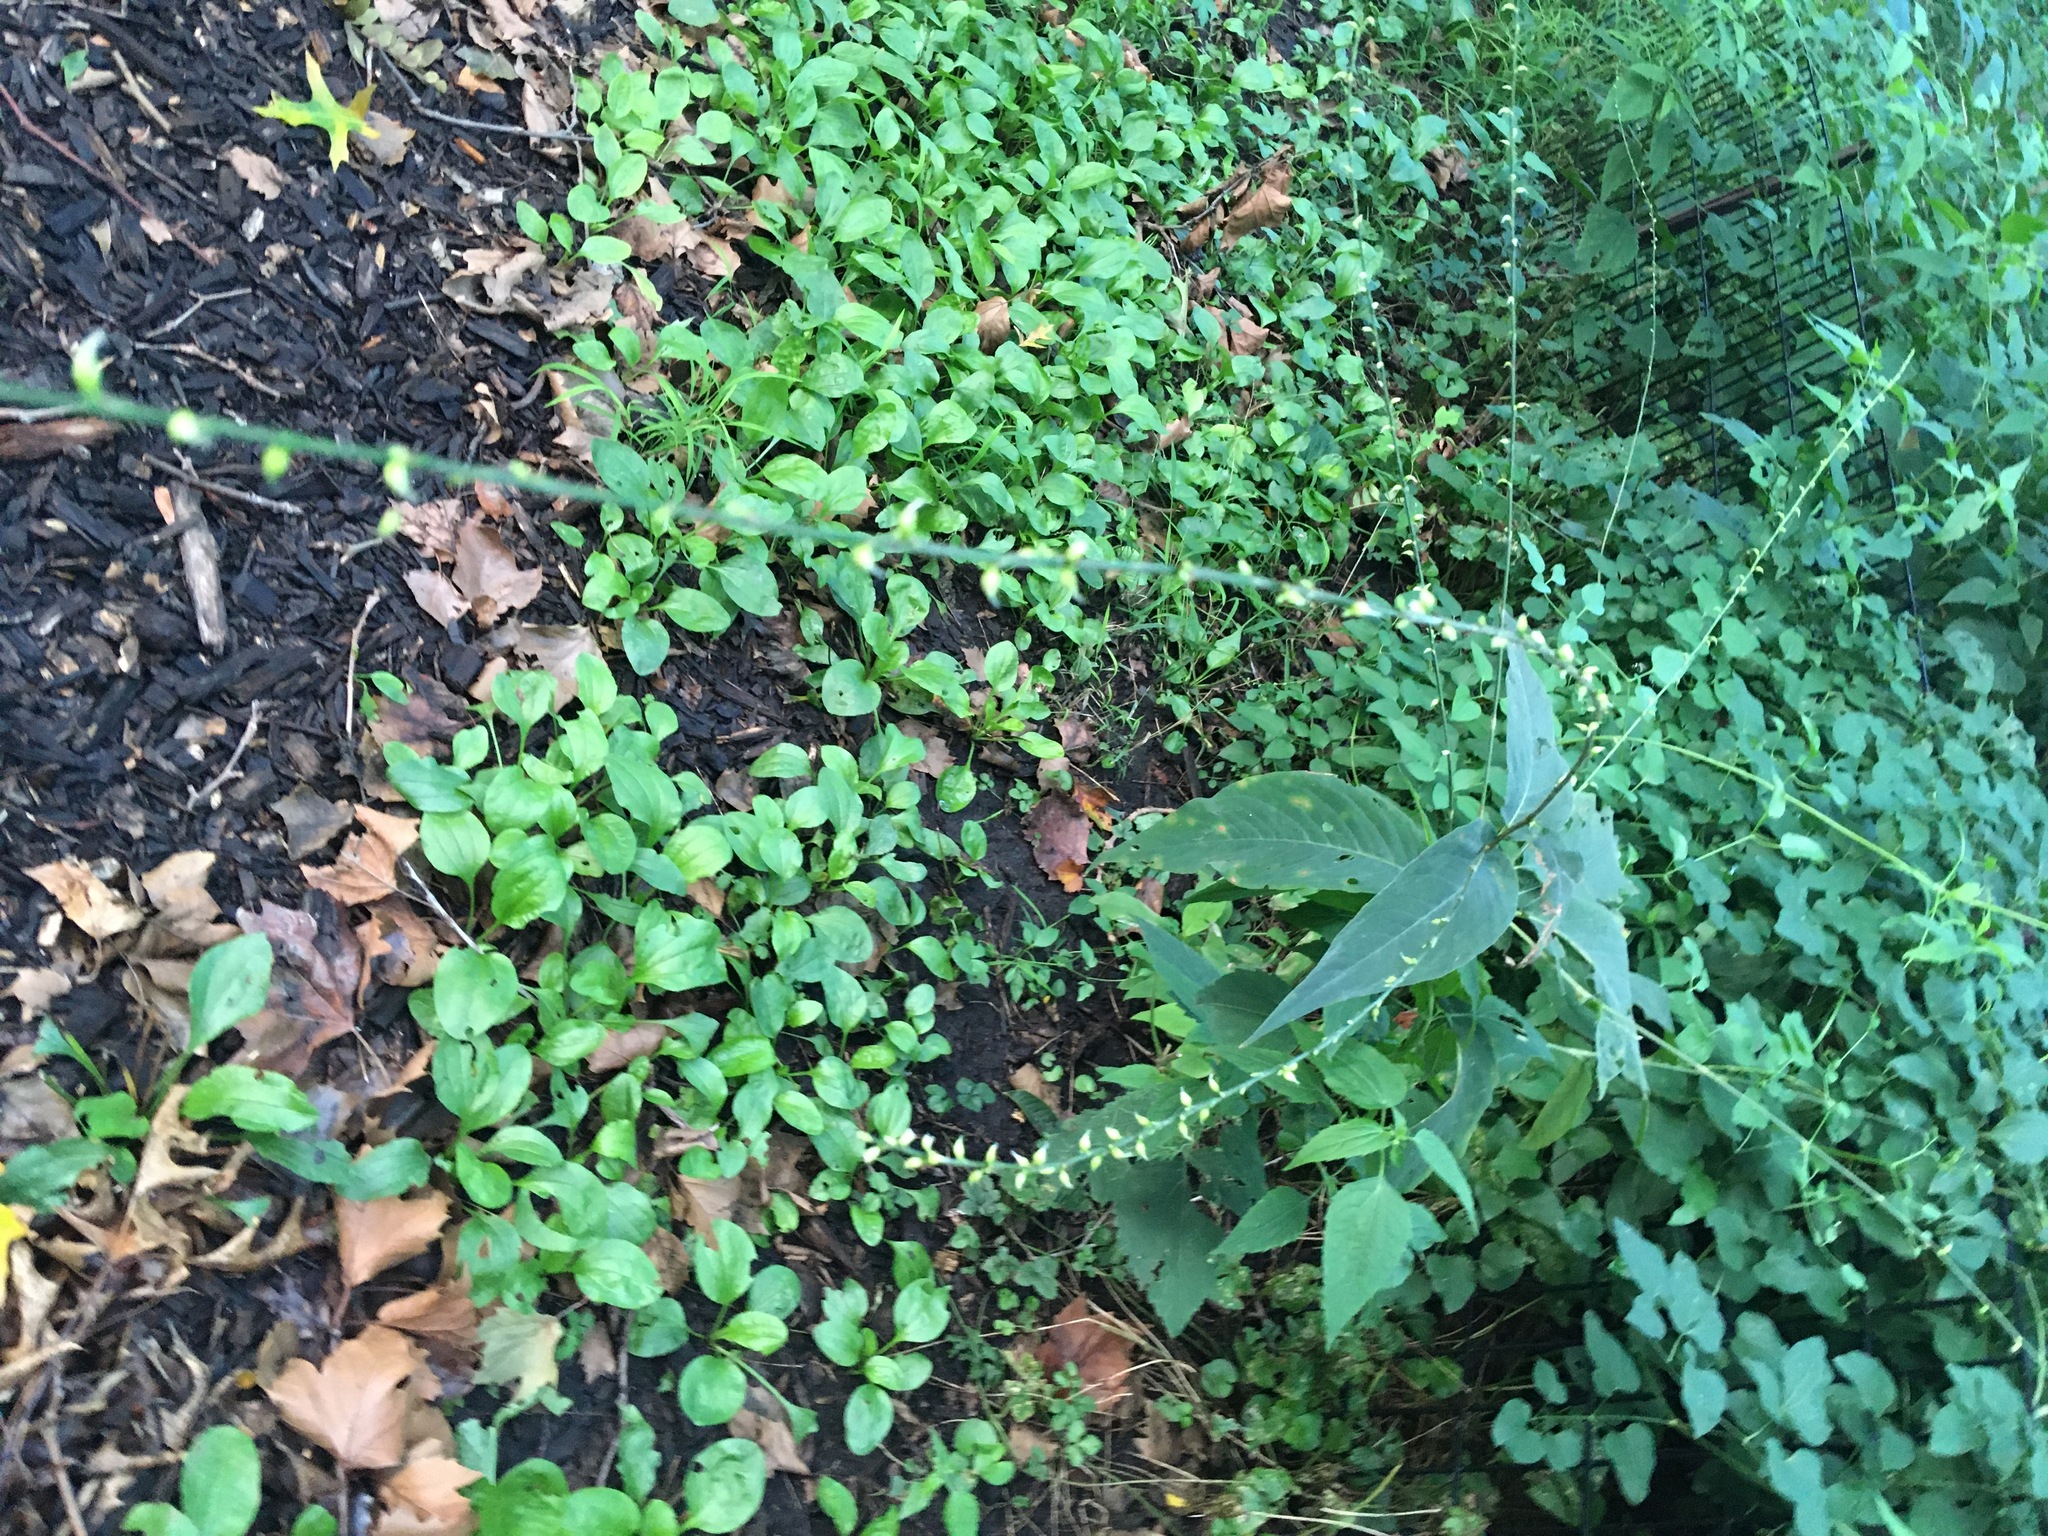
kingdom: Plantae
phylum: Tracheophyta
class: Magnoliopsida
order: Caryophyllales
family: Polygonaceae
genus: Persicaria
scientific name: Persicaria virginiana
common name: Jumpseed
